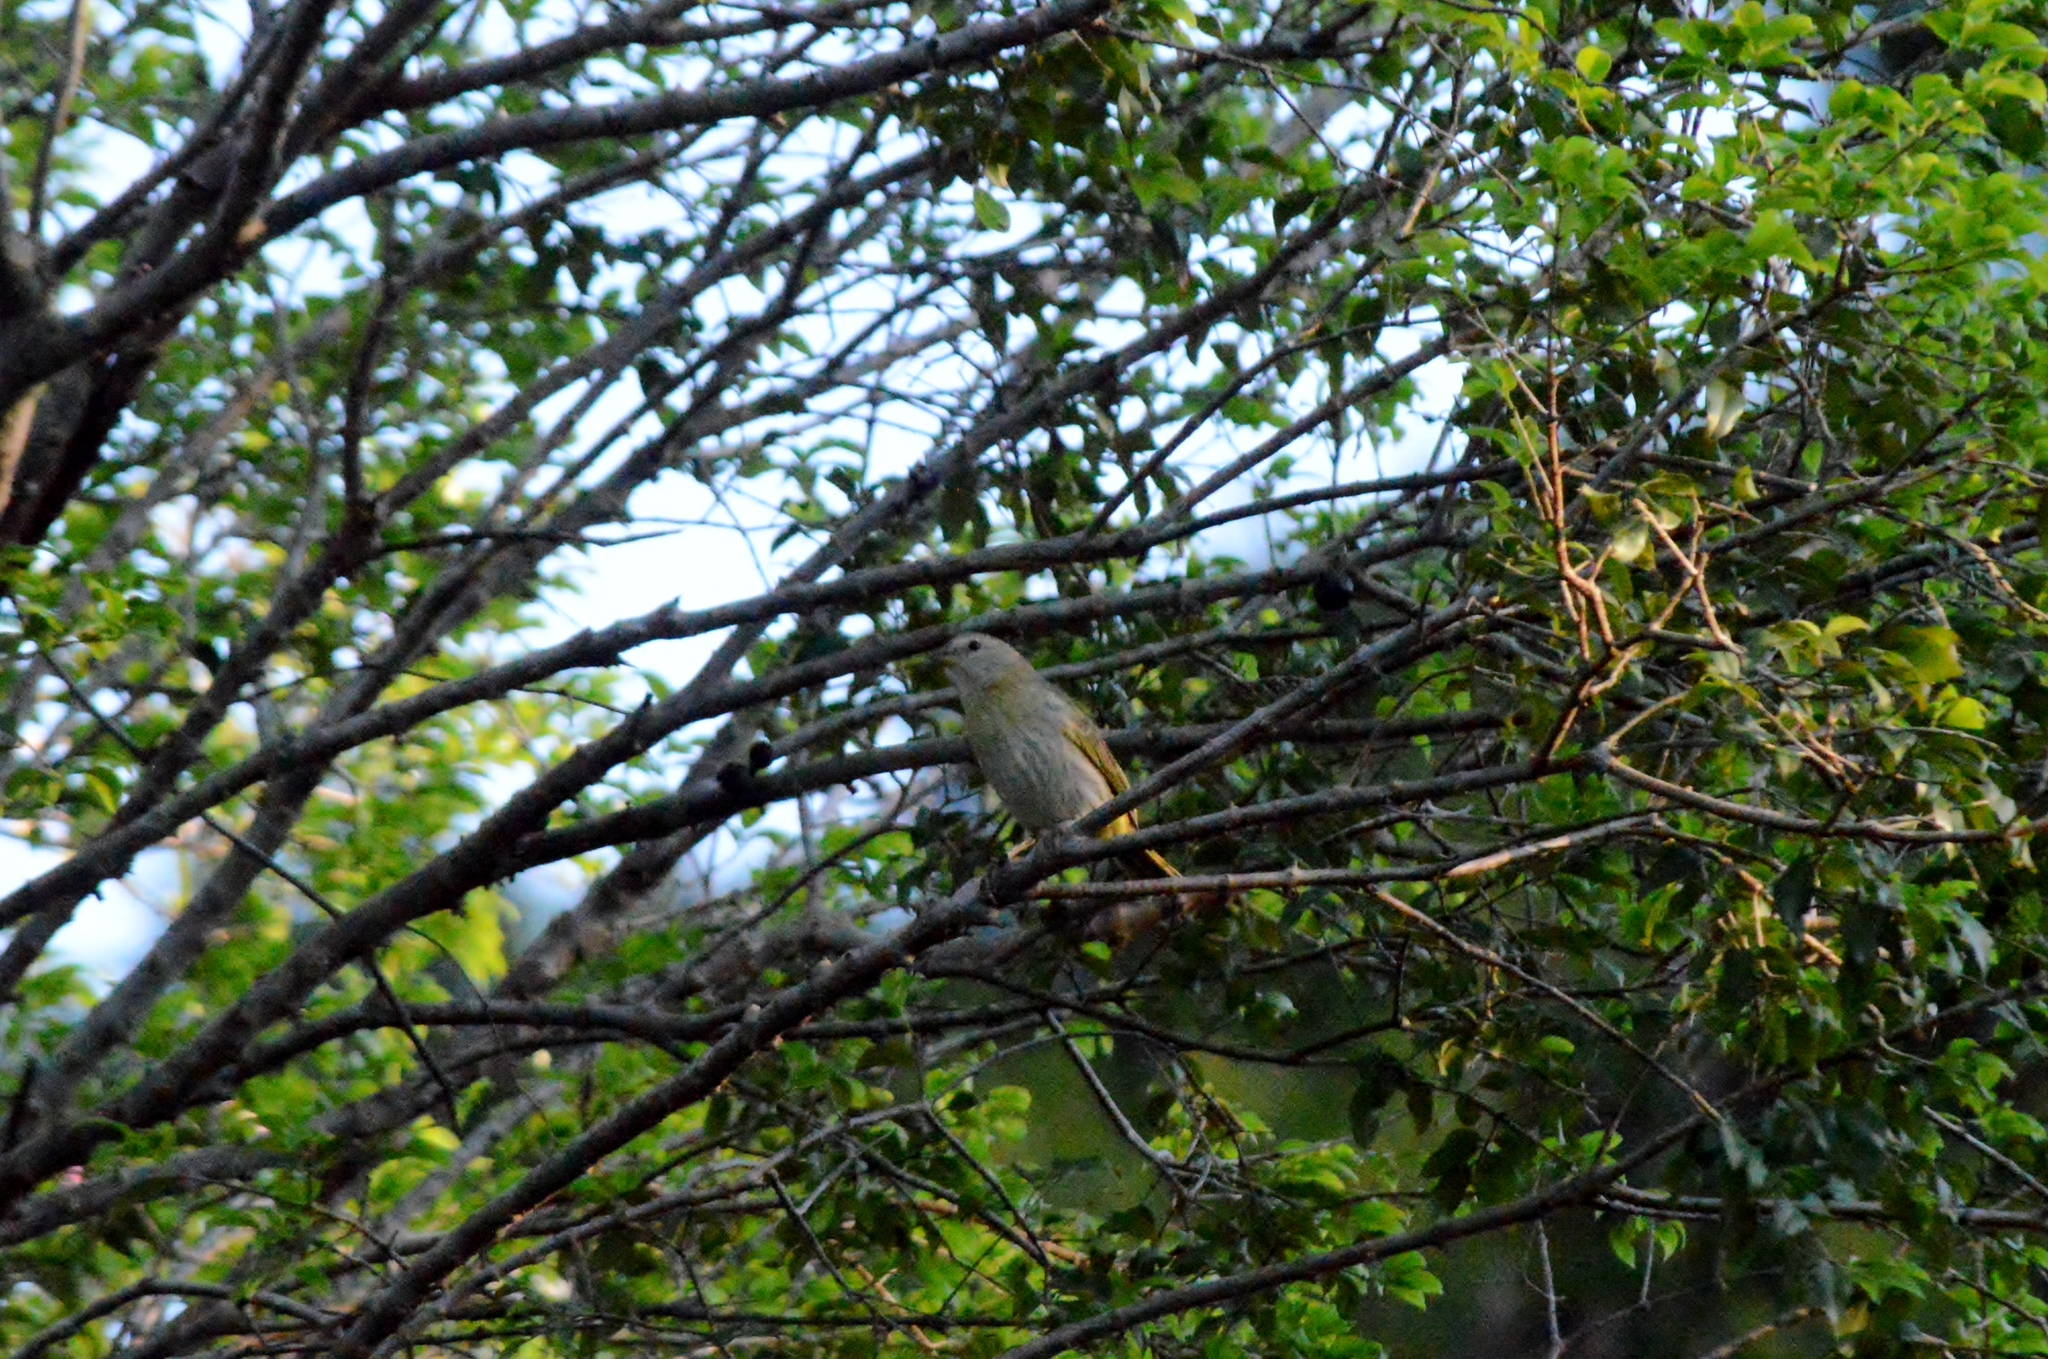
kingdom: Animalia
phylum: Chordata
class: Aves
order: Passeriformes
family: Thraupidae
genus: Sicalis
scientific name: Sicalis flaveola
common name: Saffron finch
